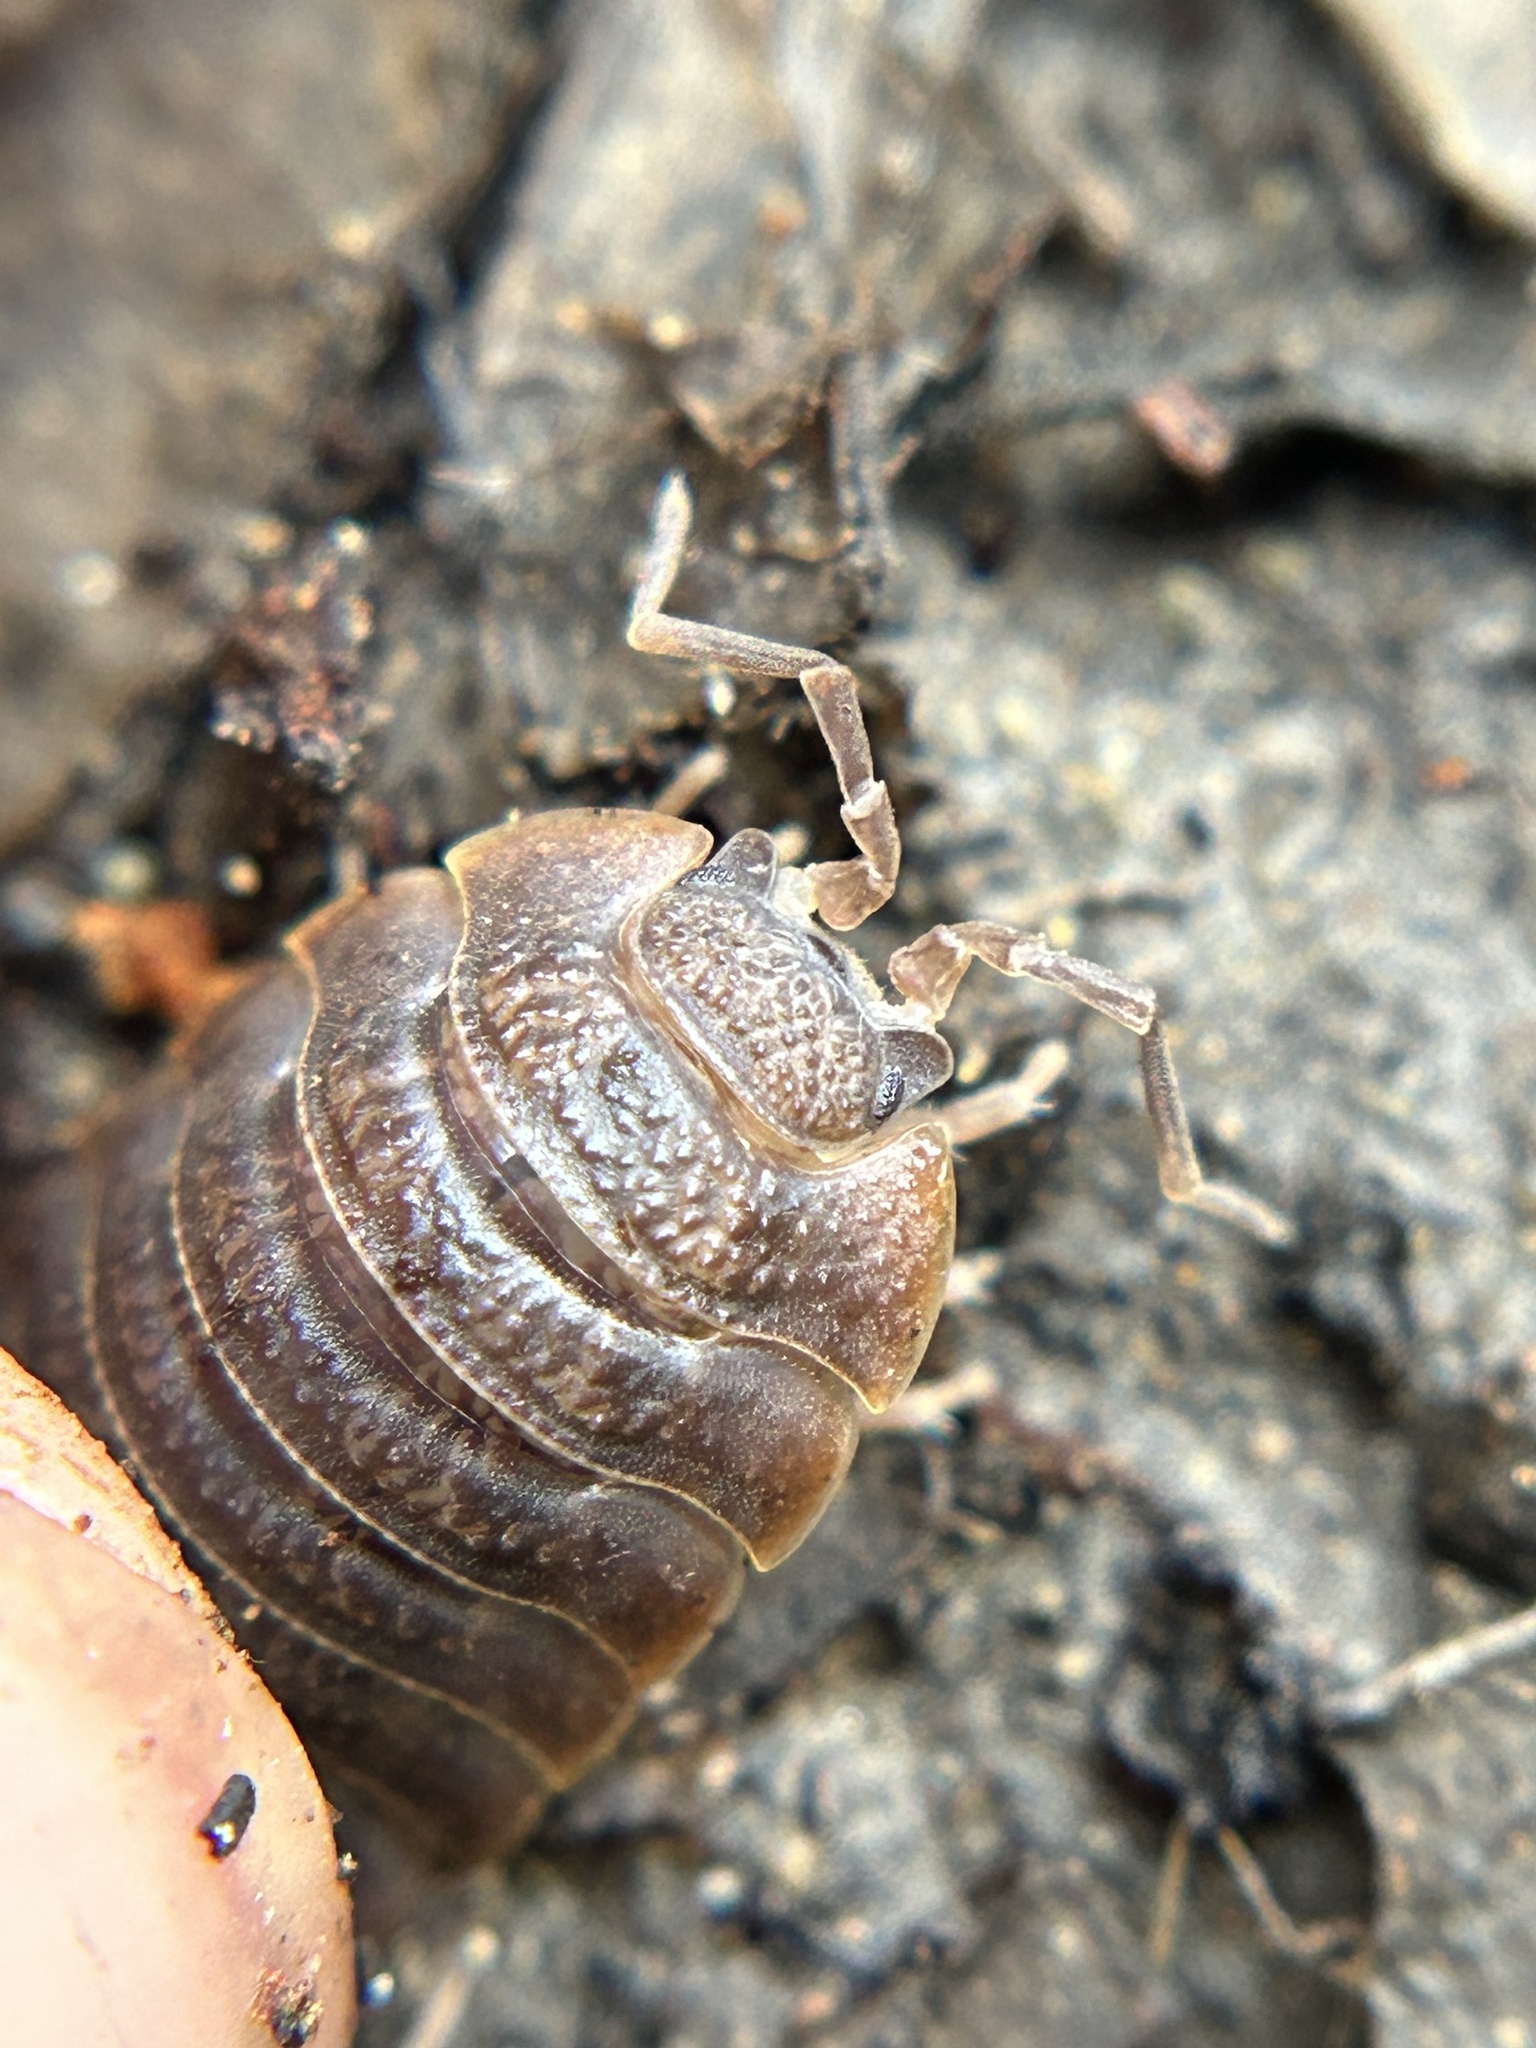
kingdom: Animalia
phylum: Arthropoda
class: Malacostraca
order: Isopoda
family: Porcellionidae
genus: Porcellio
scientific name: Porcellio dilatatus
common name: Isopod
